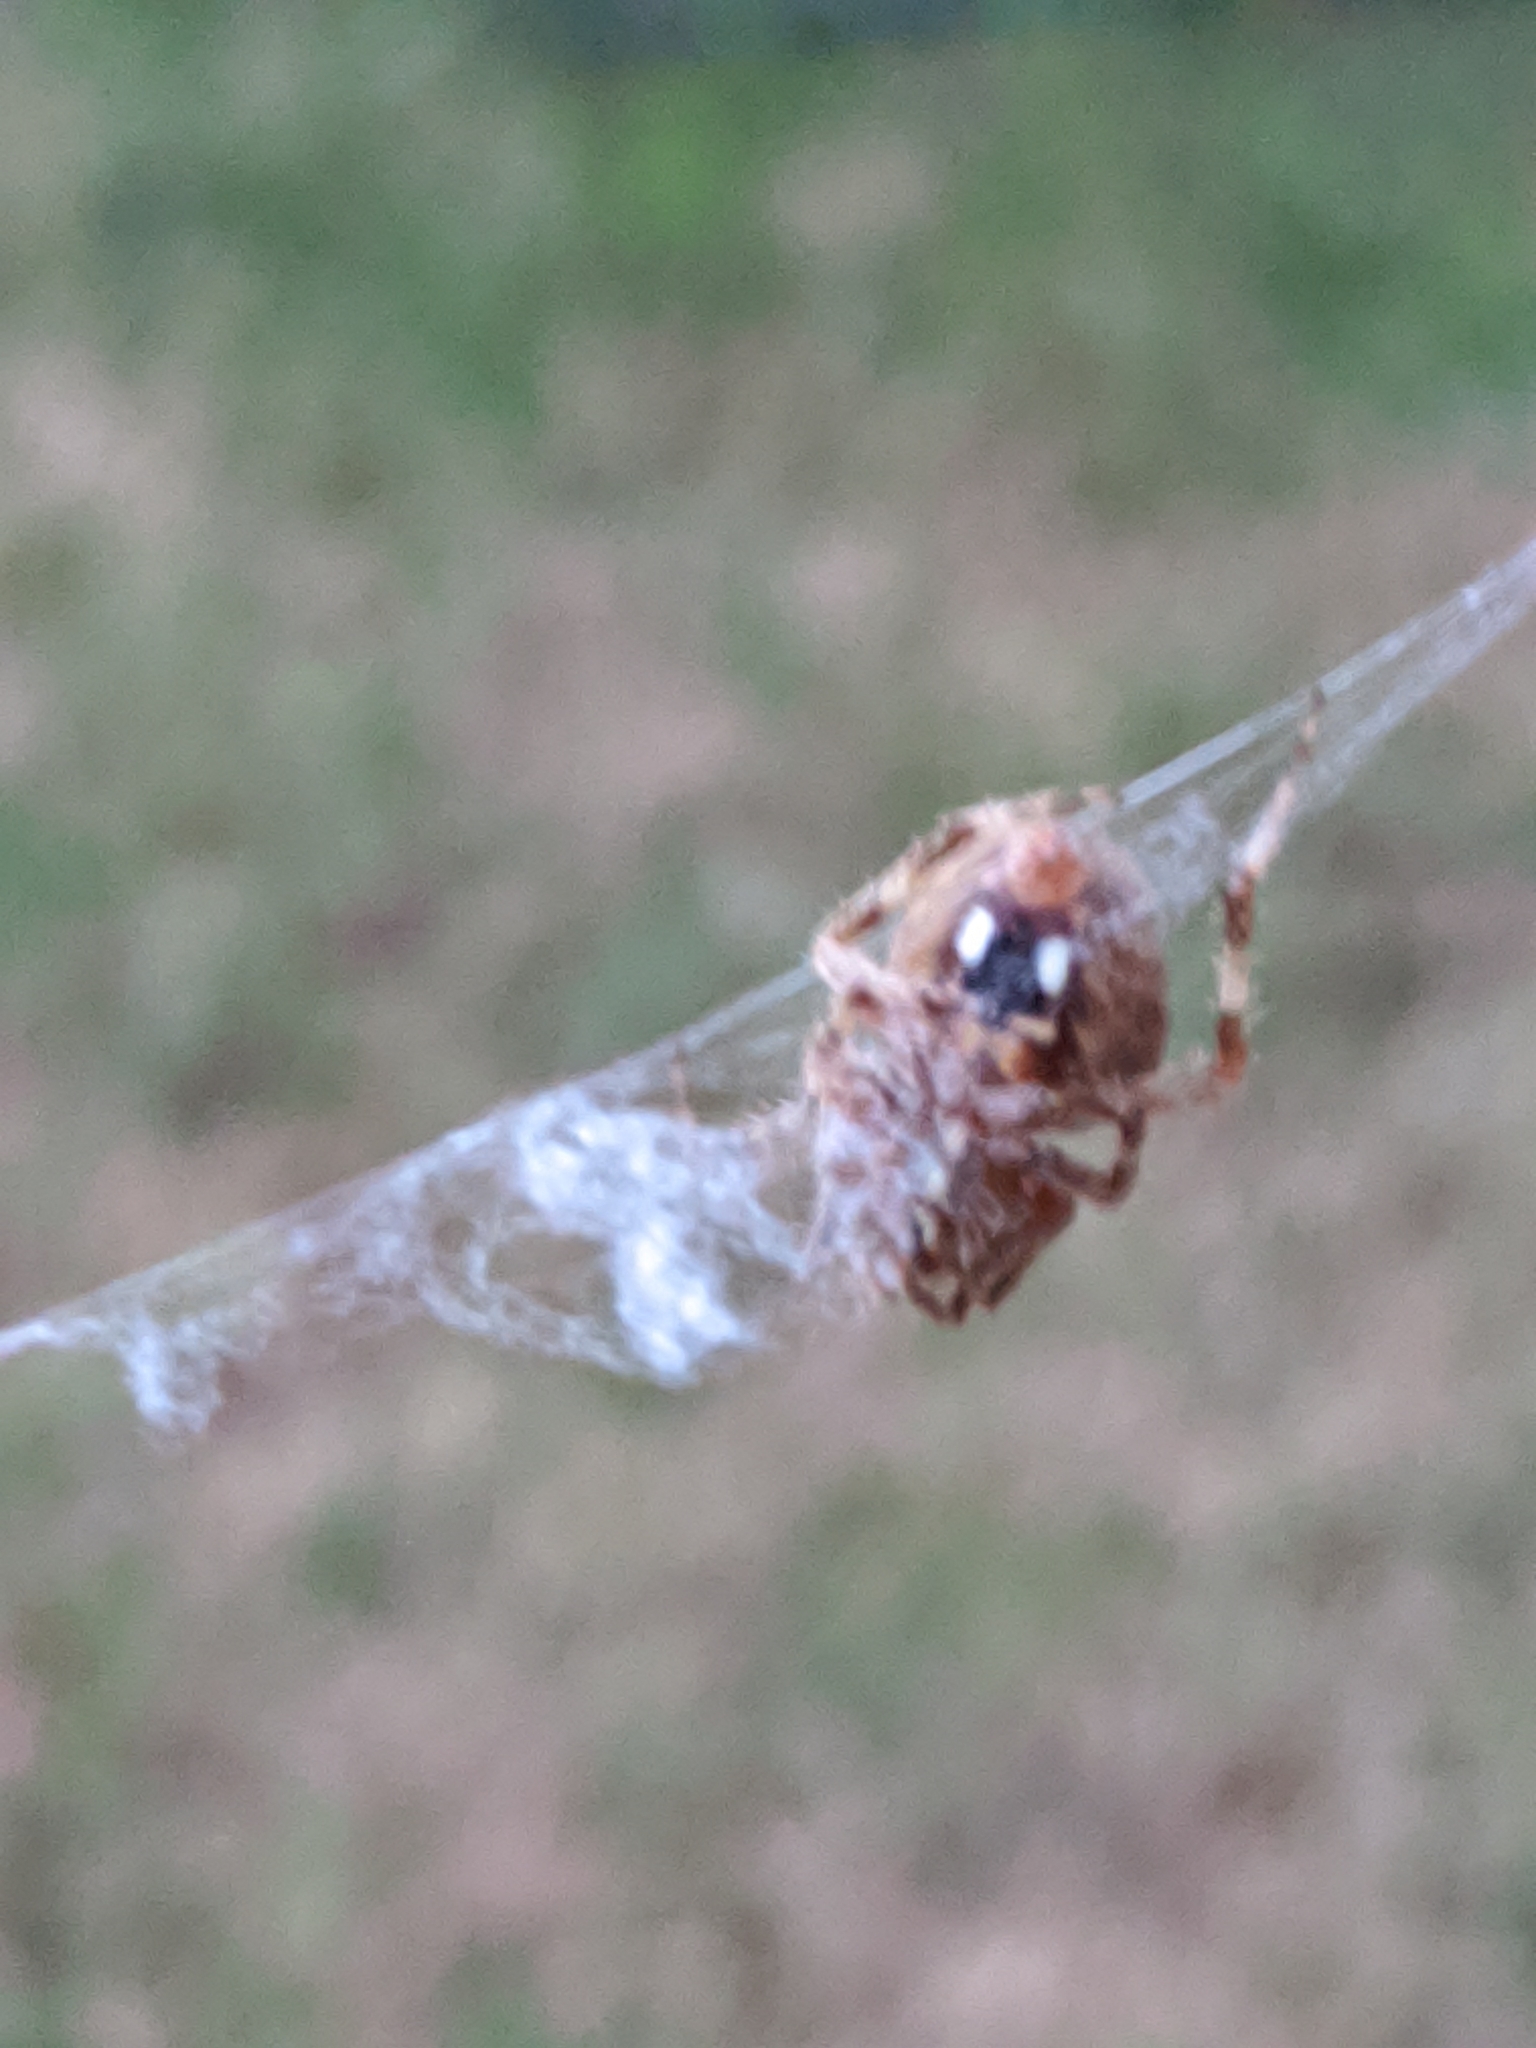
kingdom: Animalia
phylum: Arthropoda
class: Arachnida
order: Araneae
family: Araneidae
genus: Neoscona
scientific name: Neoscona crucifera
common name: Spotted orbweaver
